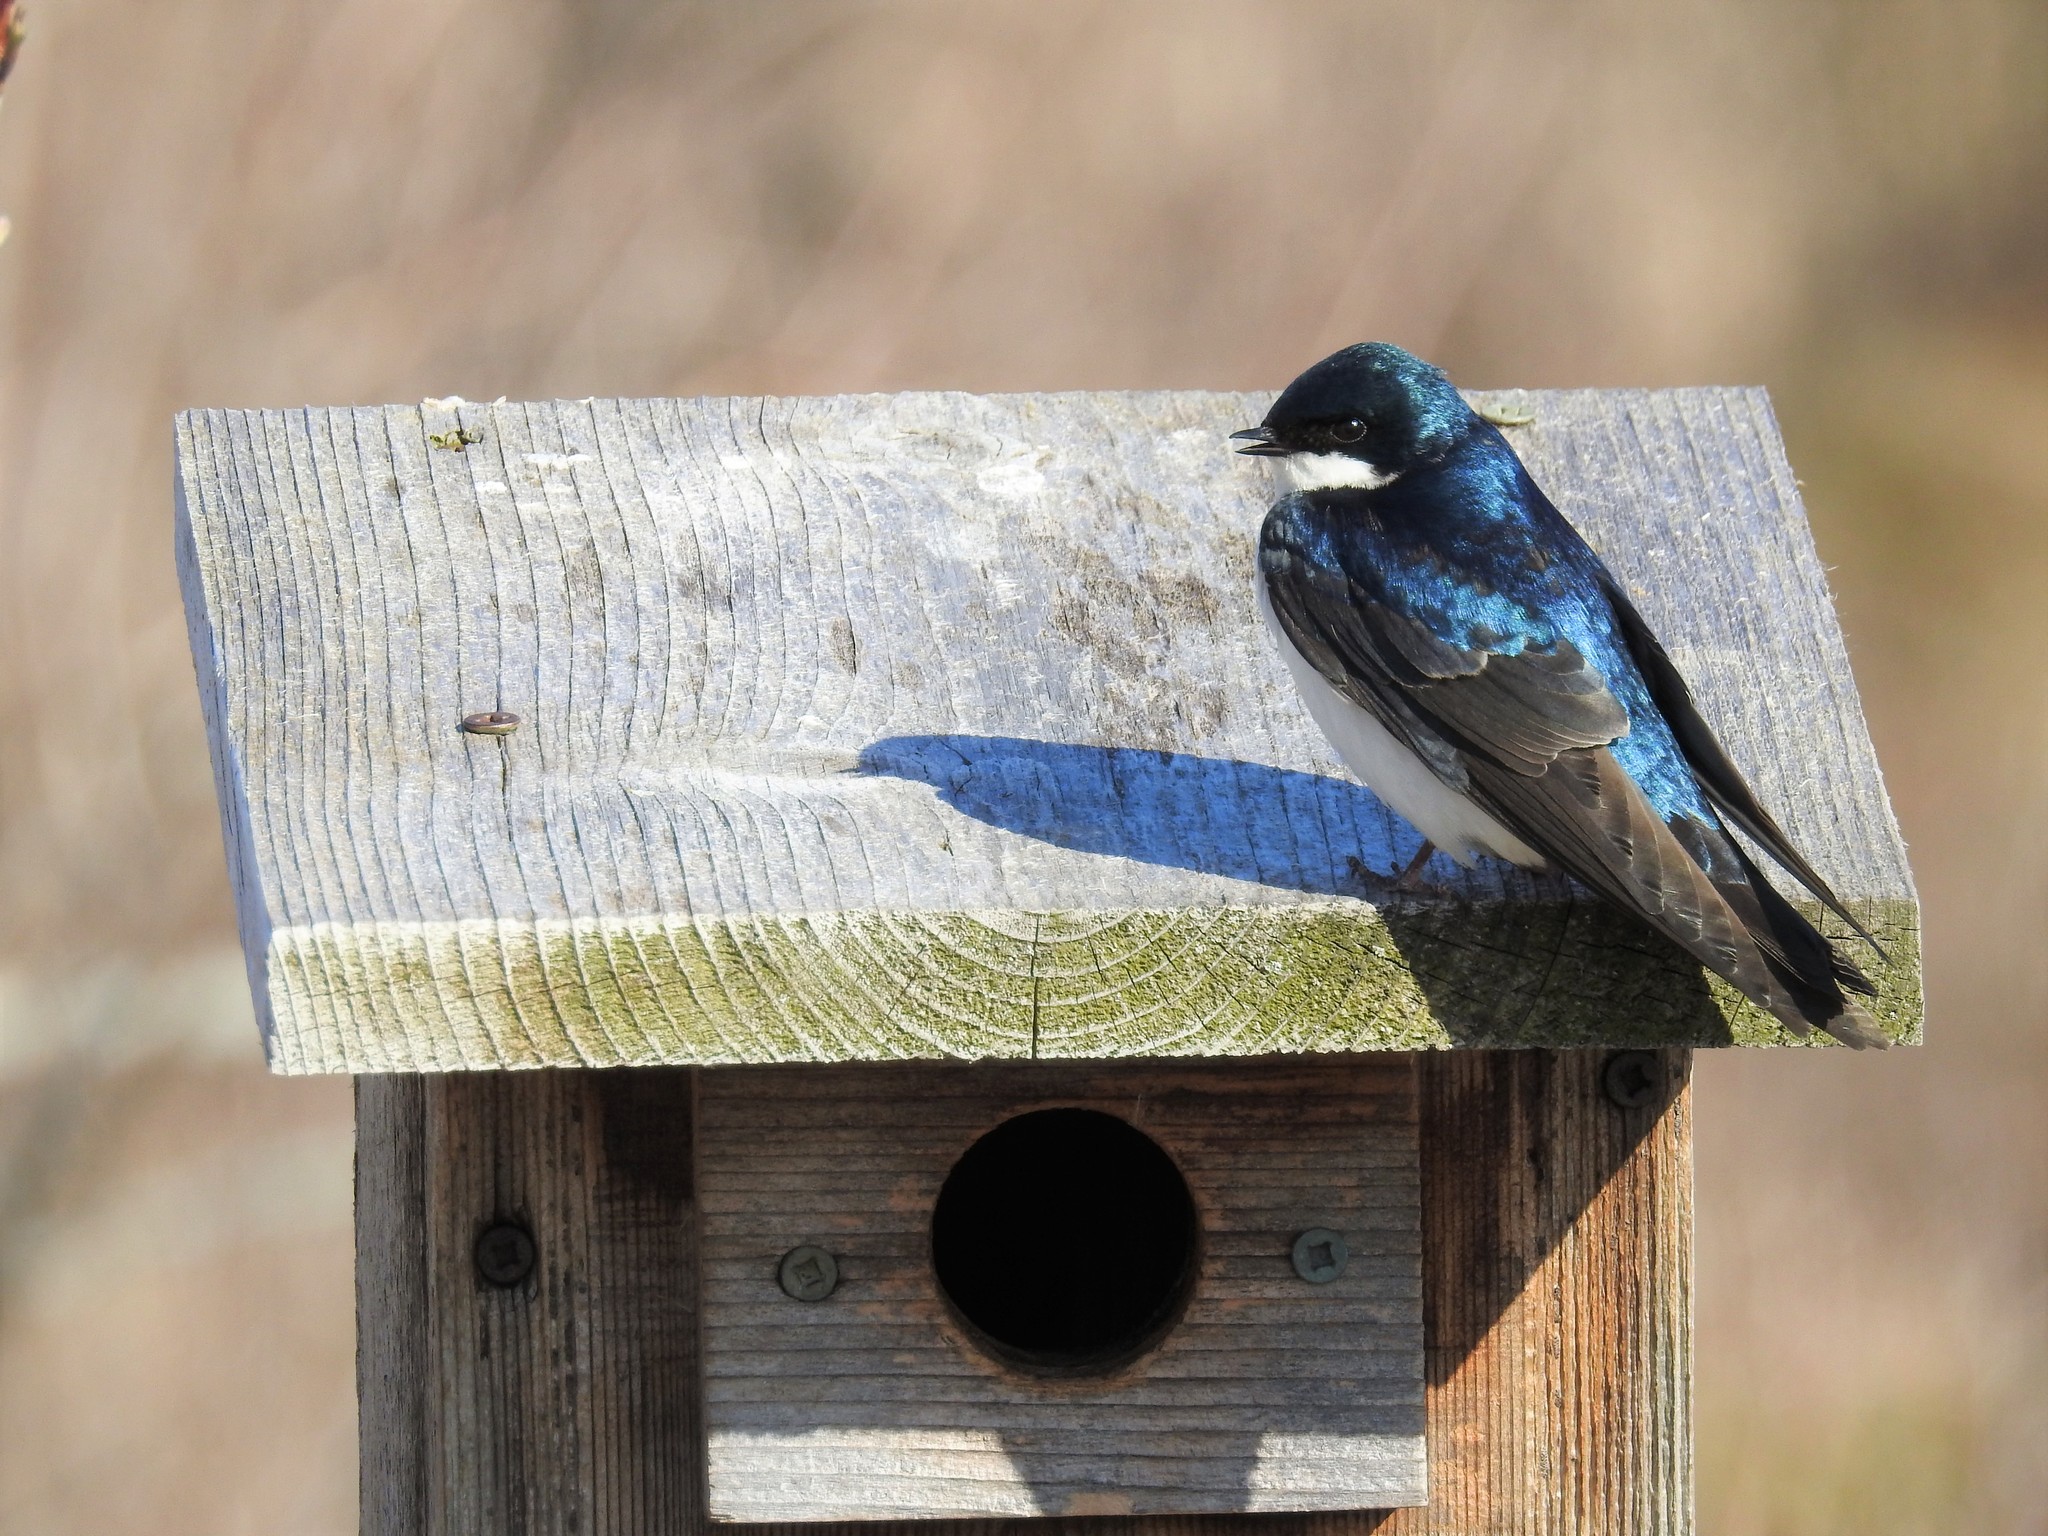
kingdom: Animalia
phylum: Chordata
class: Aves
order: Passeriformes
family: Hirundinidae
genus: Tachycineta
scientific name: Tachycineta bicolor
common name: Tree swallow
